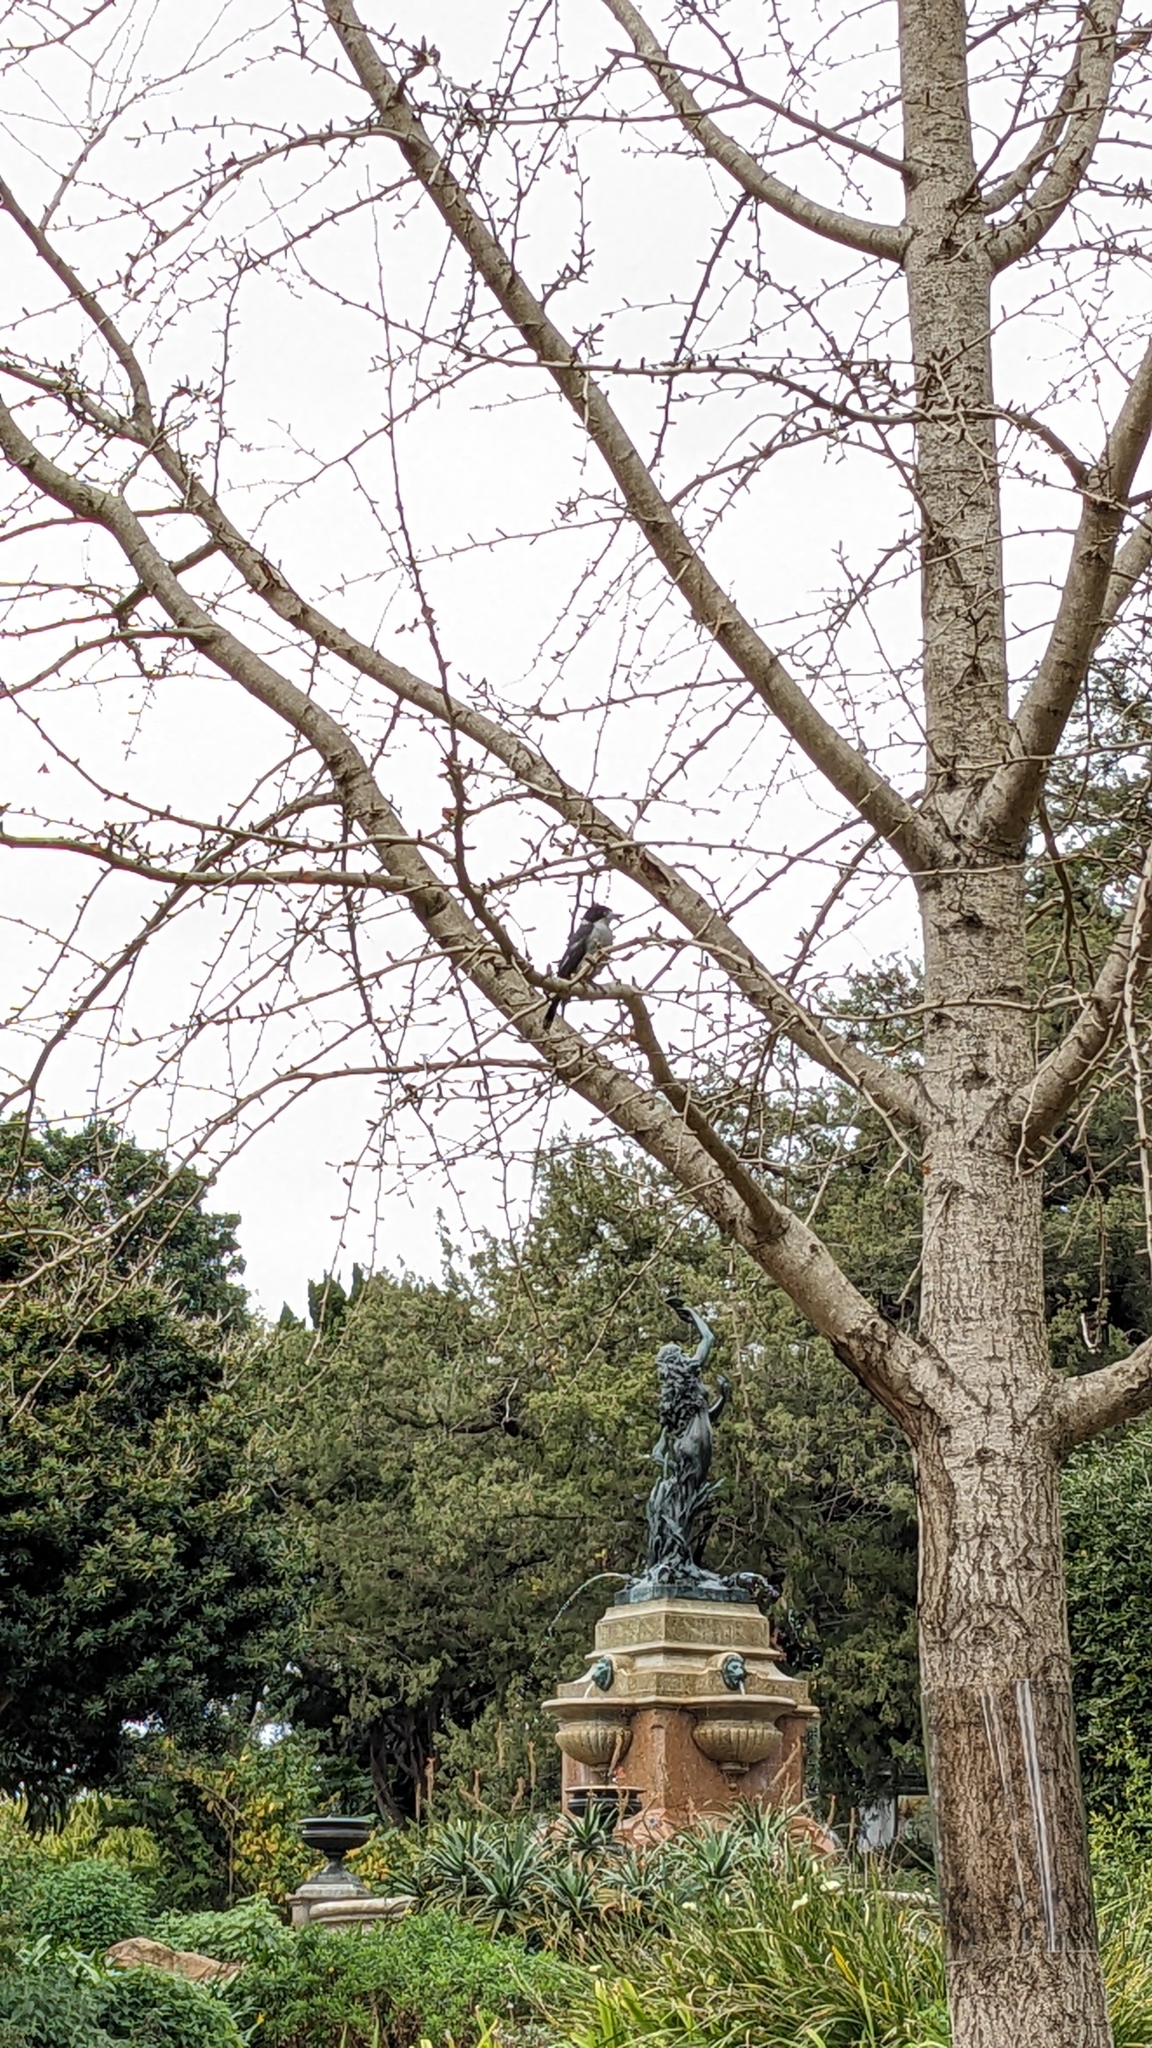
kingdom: Animalia
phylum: Chordata
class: Aves
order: Passeriformes
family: Cracticidae
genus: Cracticus
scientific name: Cracticus torquatus
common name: Grey butcherbird
